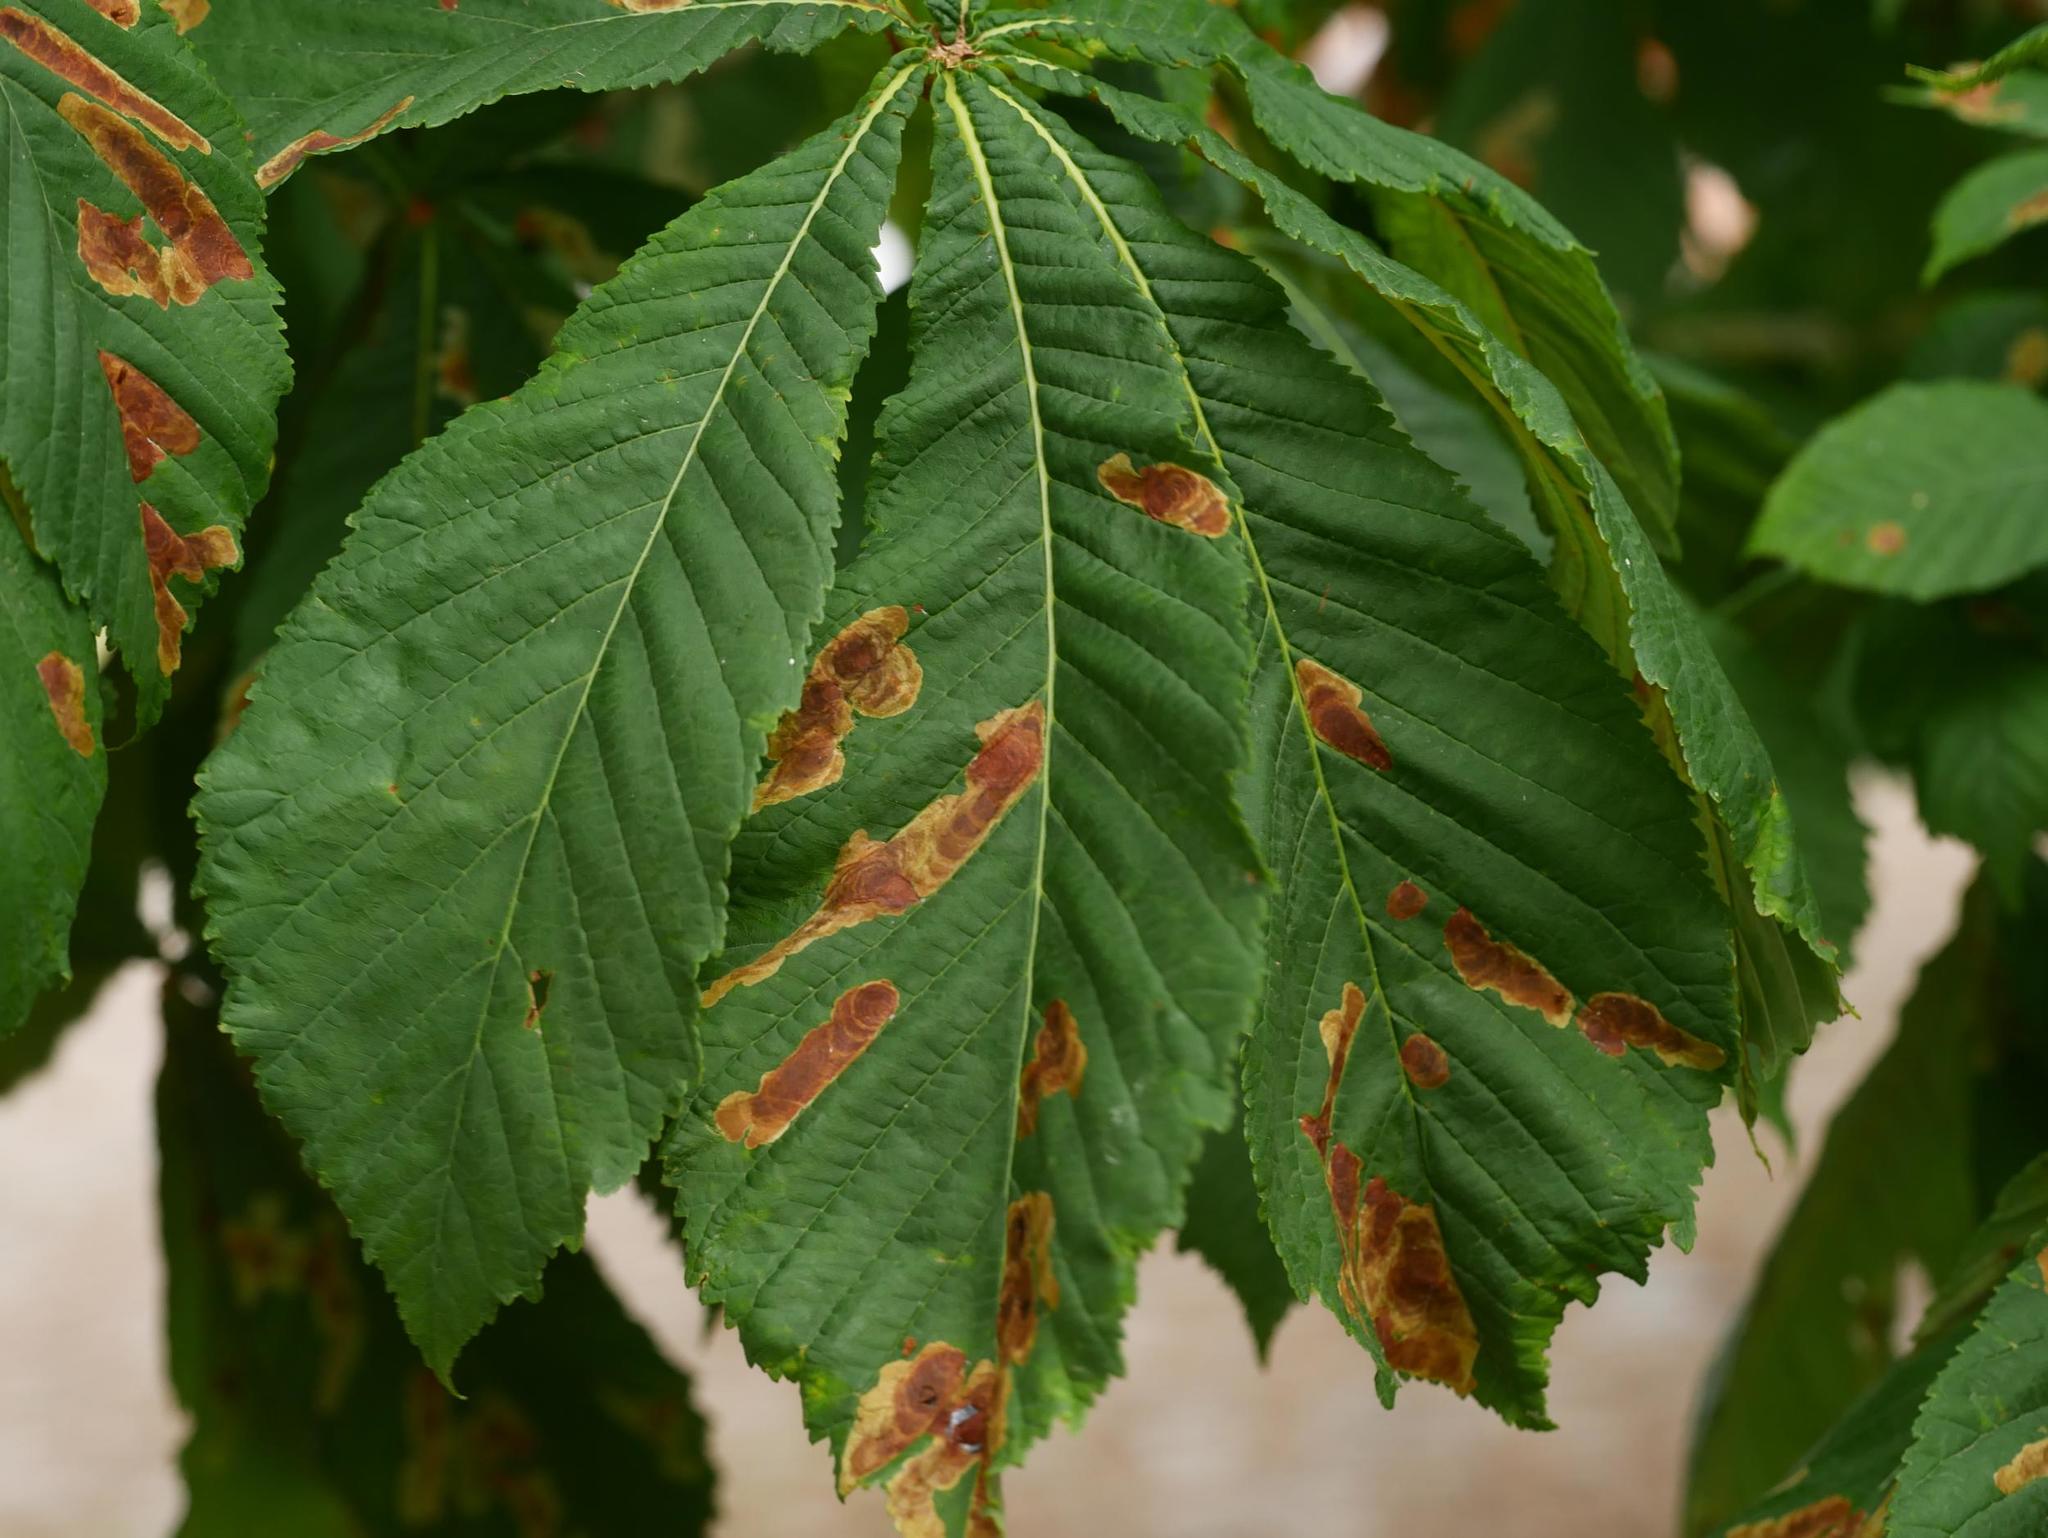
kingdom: Animalia
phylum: Arthropoda
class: Insecta
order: Lepidoptera
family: Gracillariidae
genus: Cameraria
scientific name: Cameraria ohridella
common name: Horse-chestnut leaf-miner
